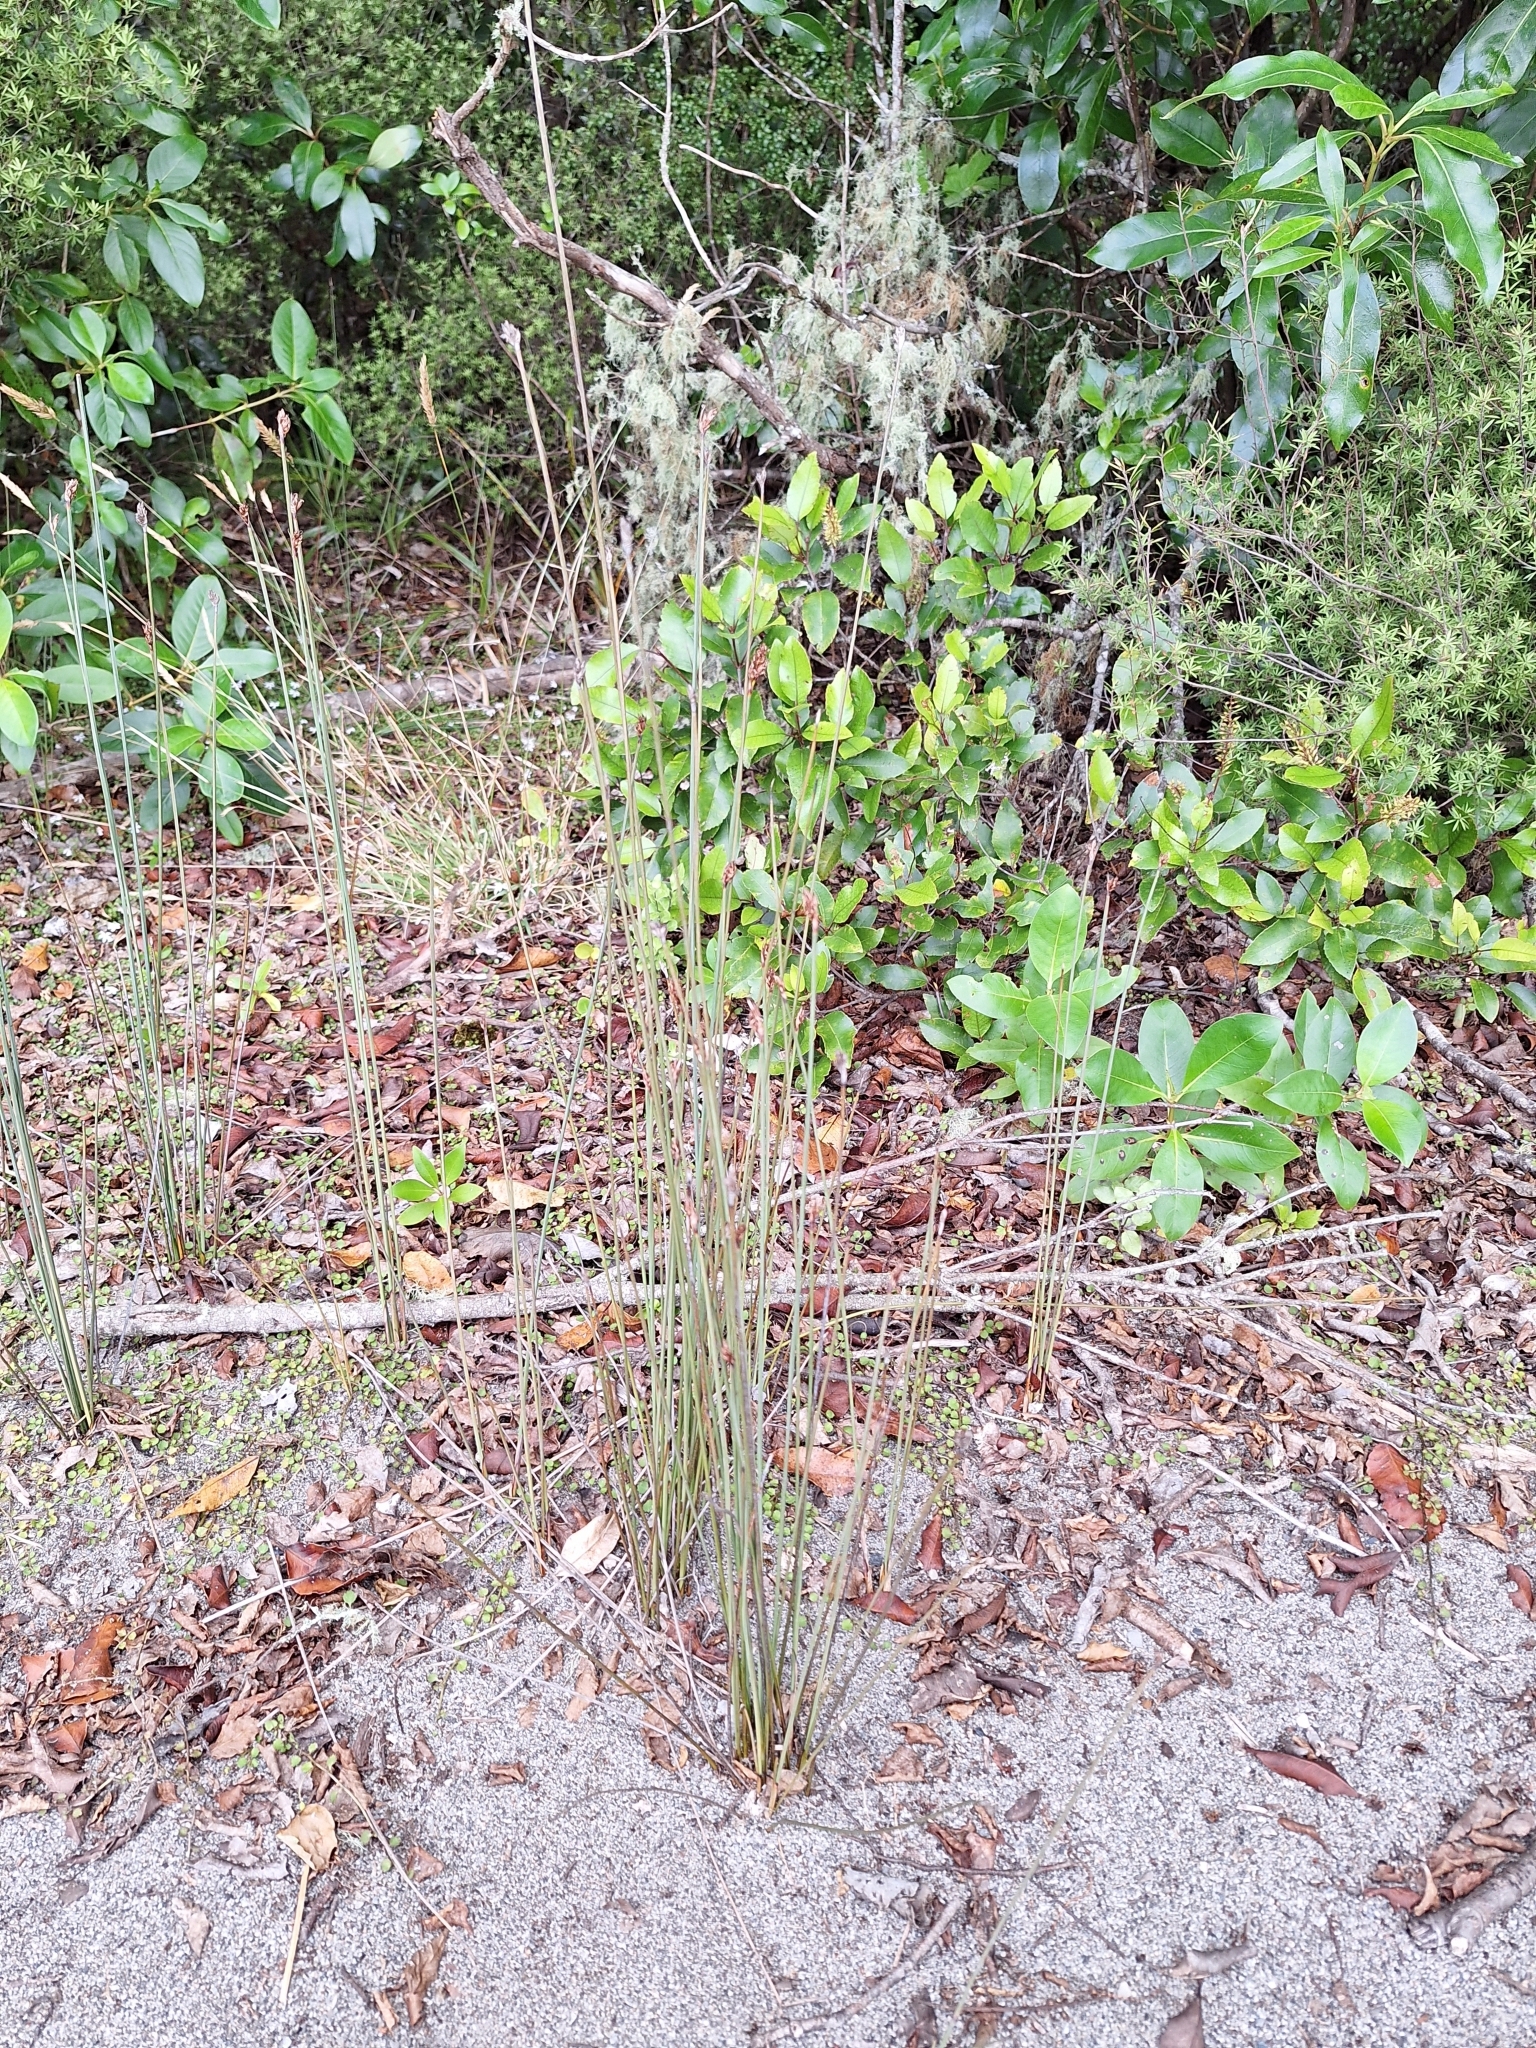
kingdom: Plantae
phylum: Tracheophyta
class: Liliopsida
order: Poales
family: Cyperaceae
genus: Lepidosperma
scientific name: Lepidosperma australe
